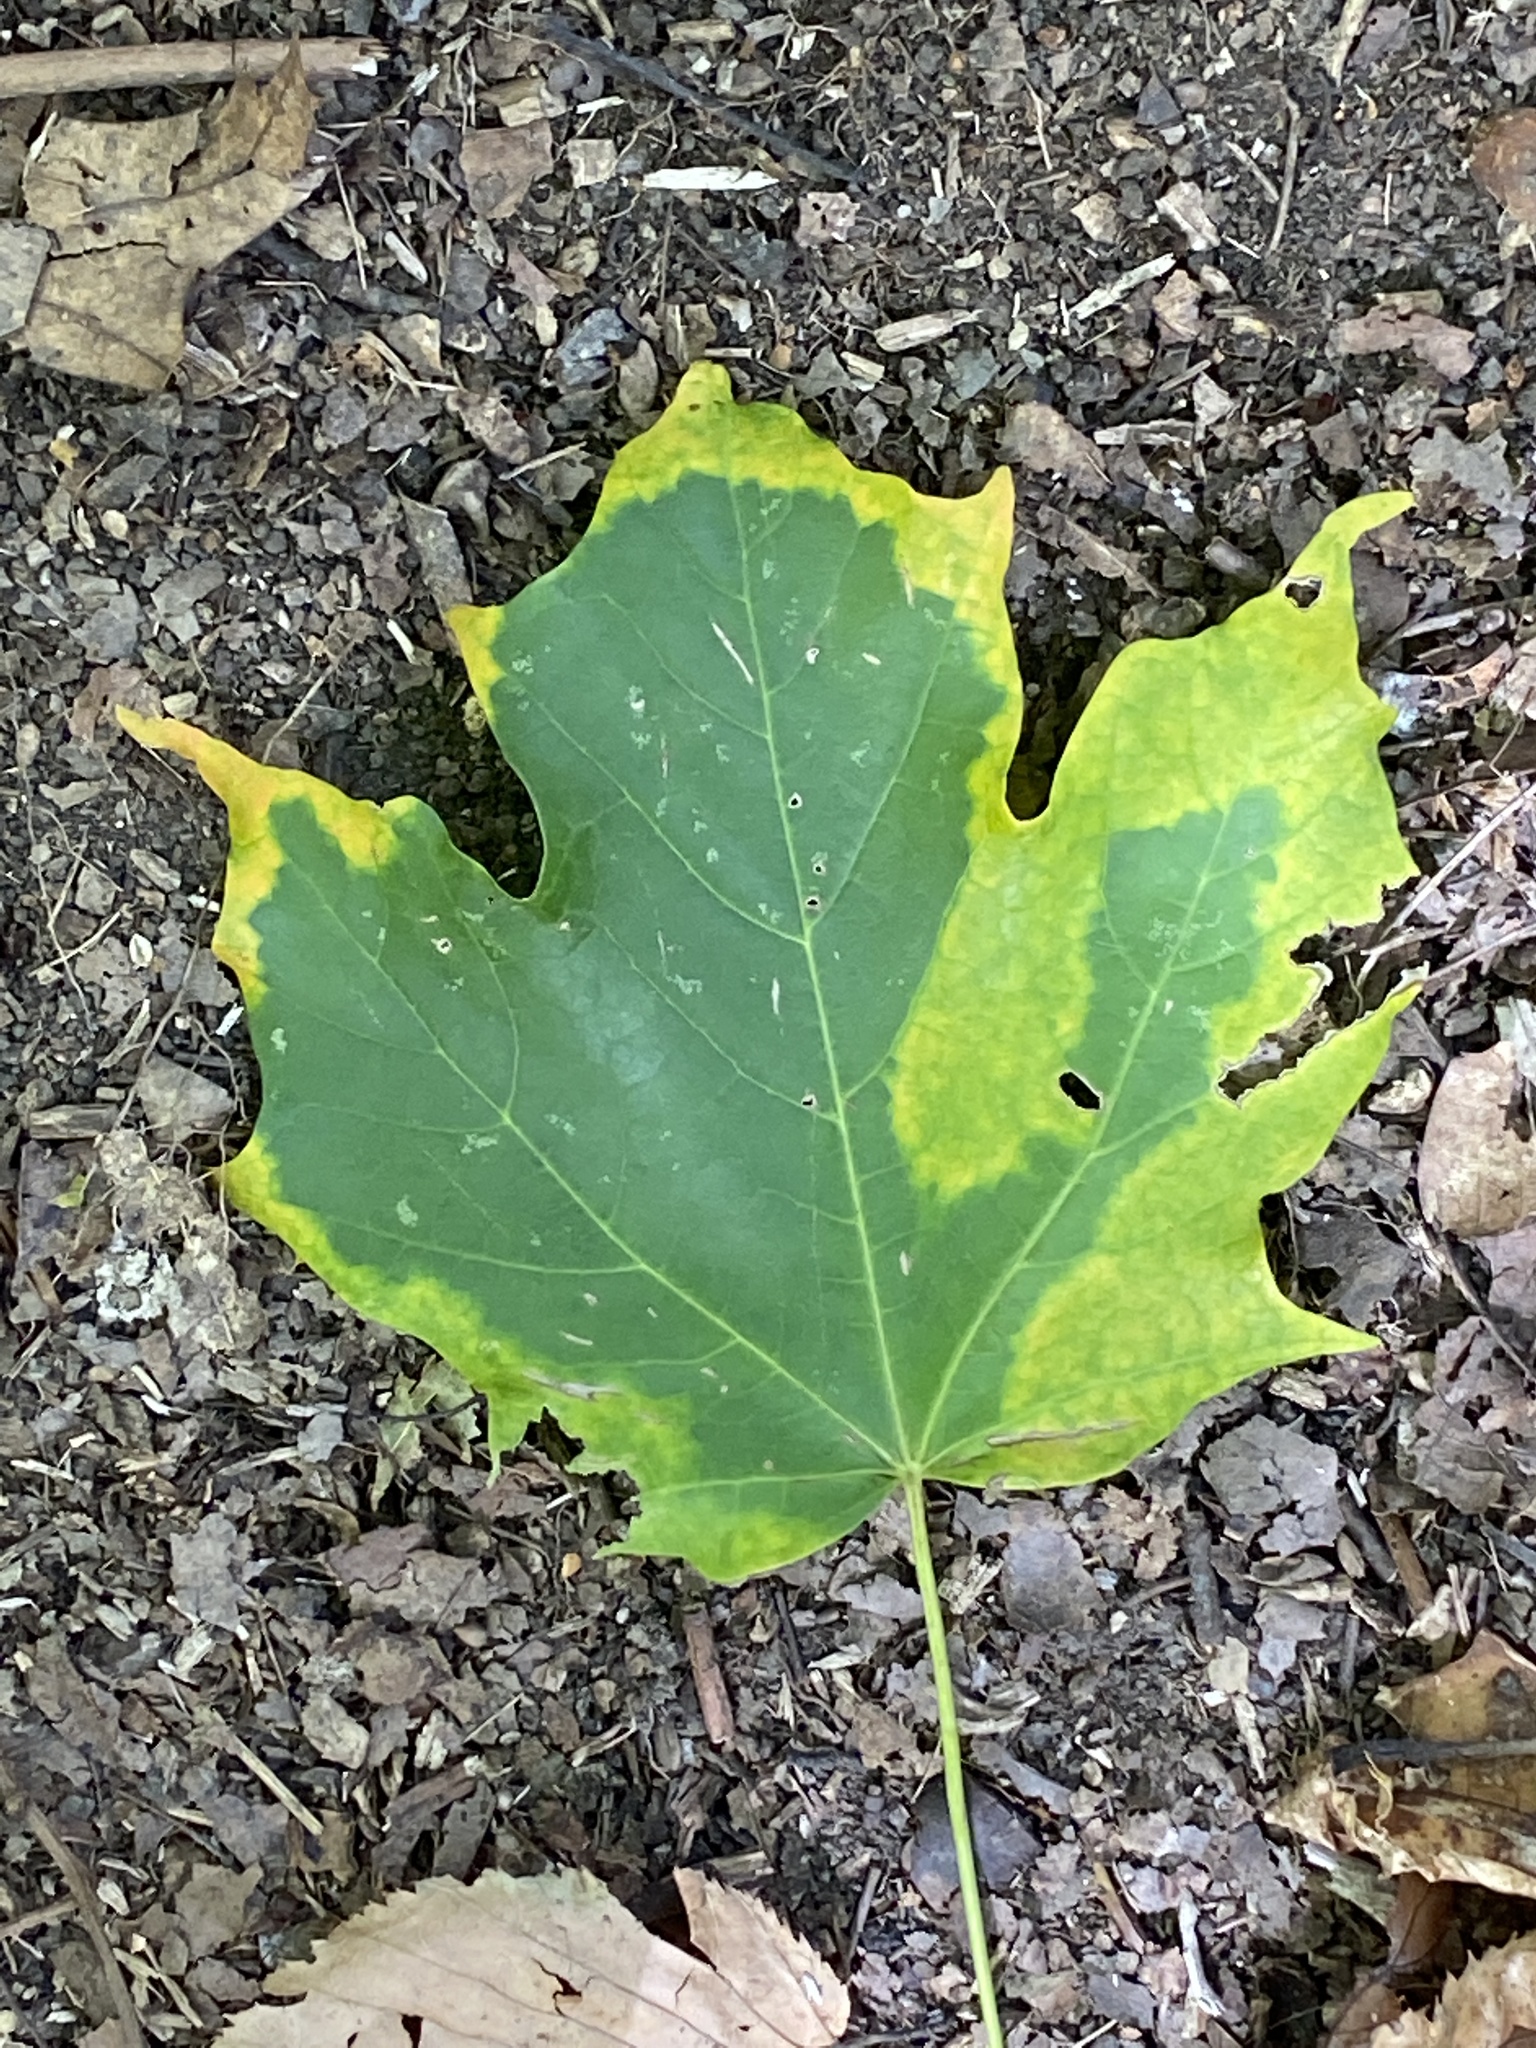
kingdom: Plantae
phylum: Tracheophyta
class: Magnoliopsida
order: Sapindales
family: Sapindaceae
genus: Acer
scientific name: Acer saccharum
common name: Sugar maple
